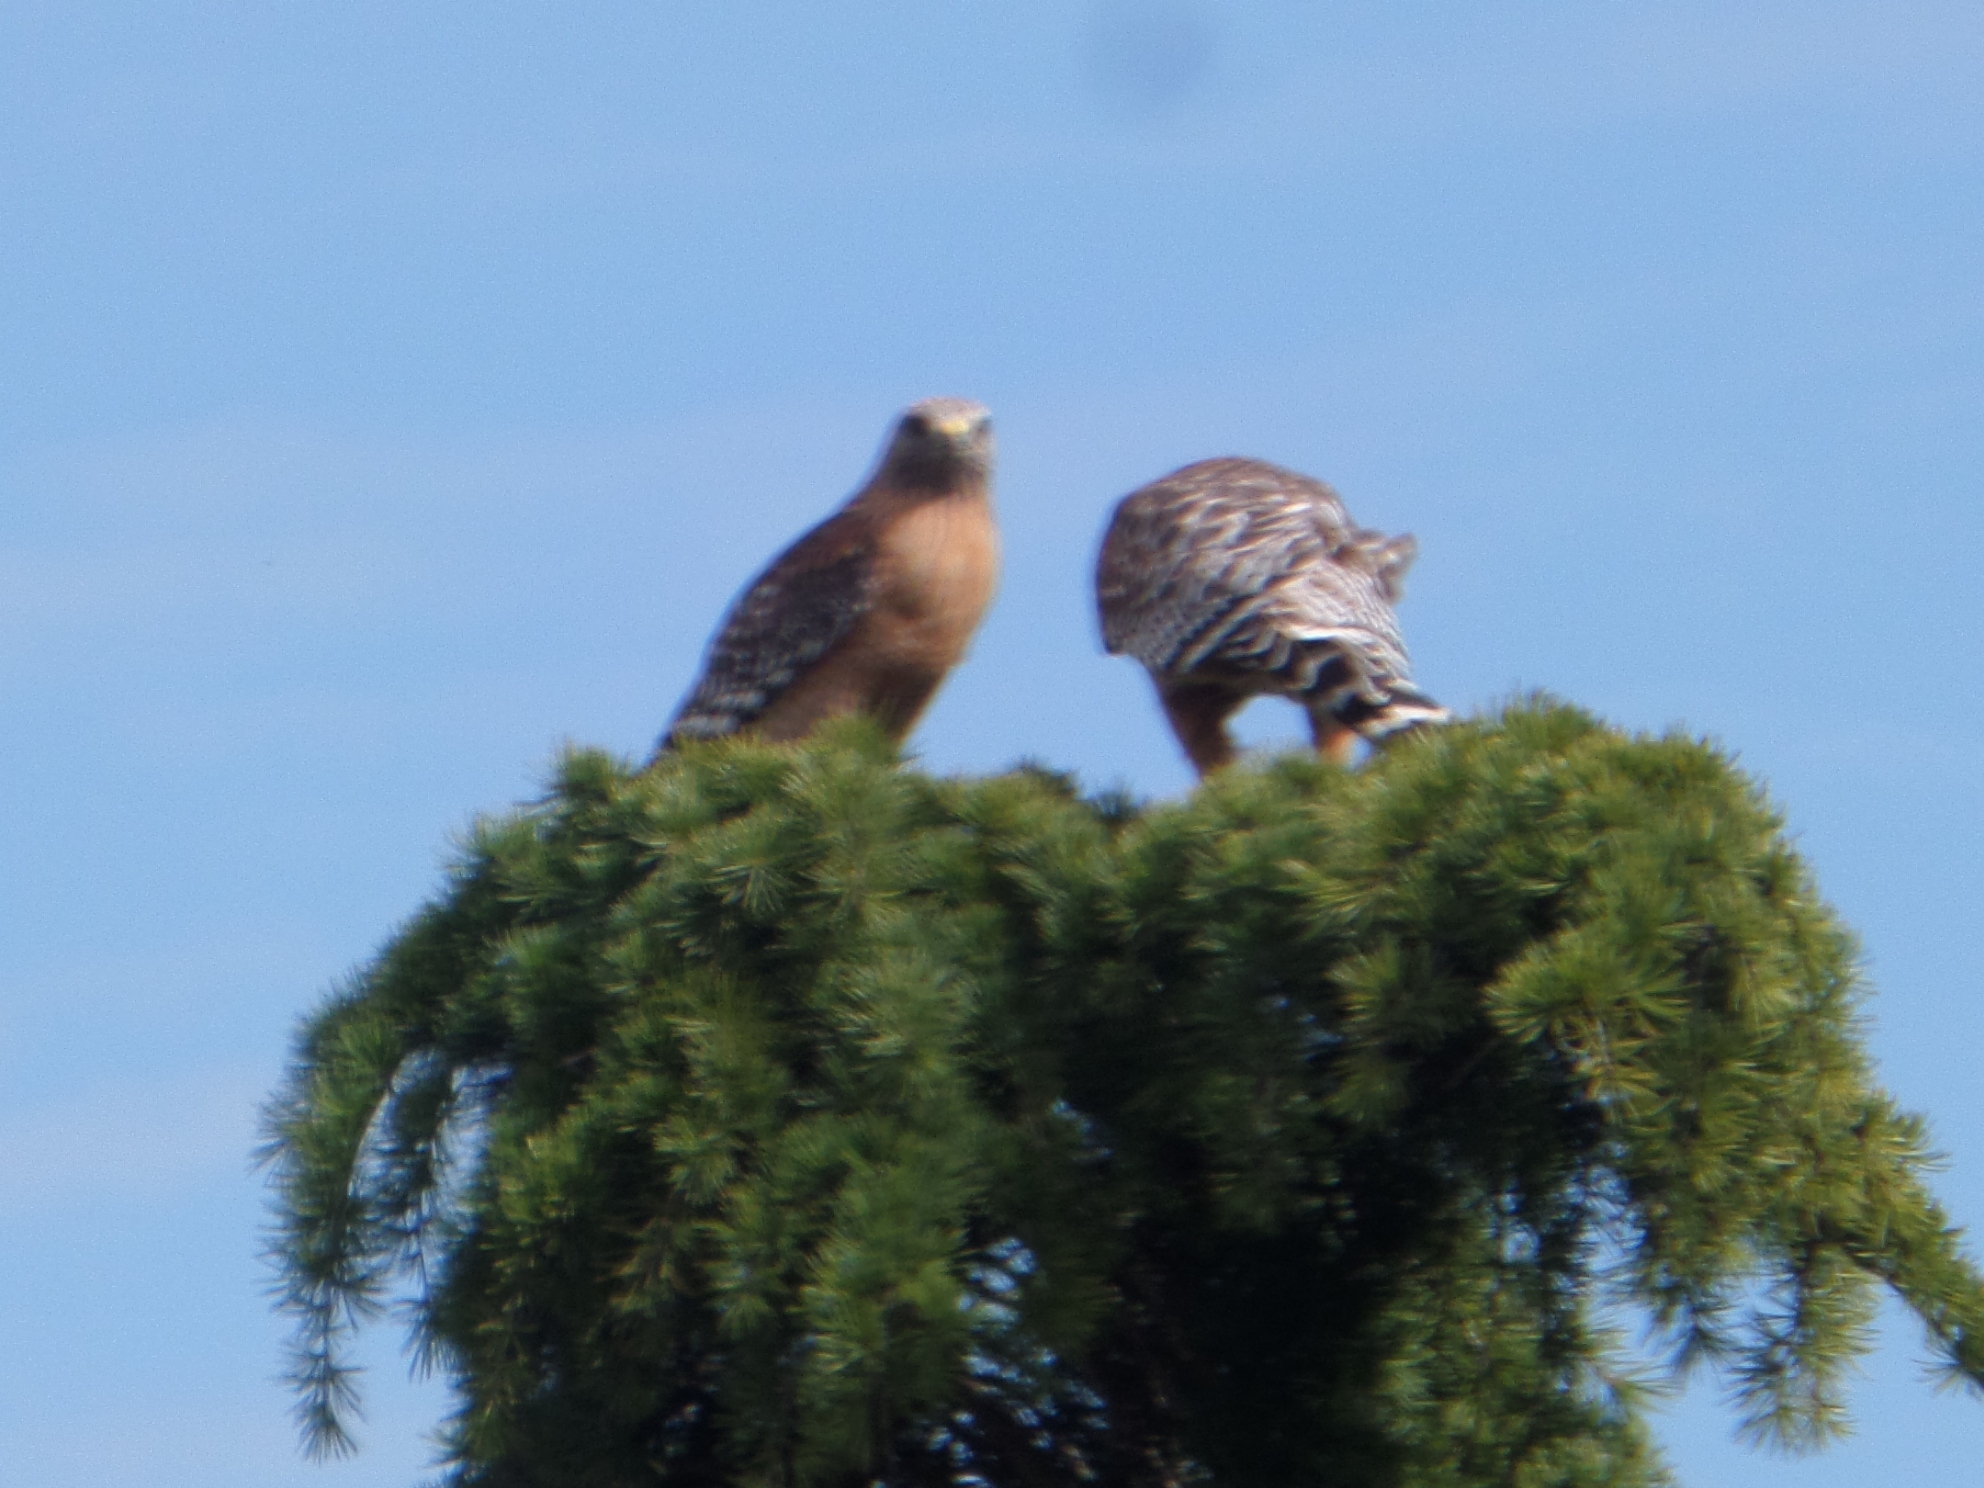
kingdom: Animalia
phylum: Chordata
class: Aves
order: Accipitriformes
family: Accipitridae
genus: Buteo
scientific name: Buteo lineatus
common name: Red-shouldered hawk
